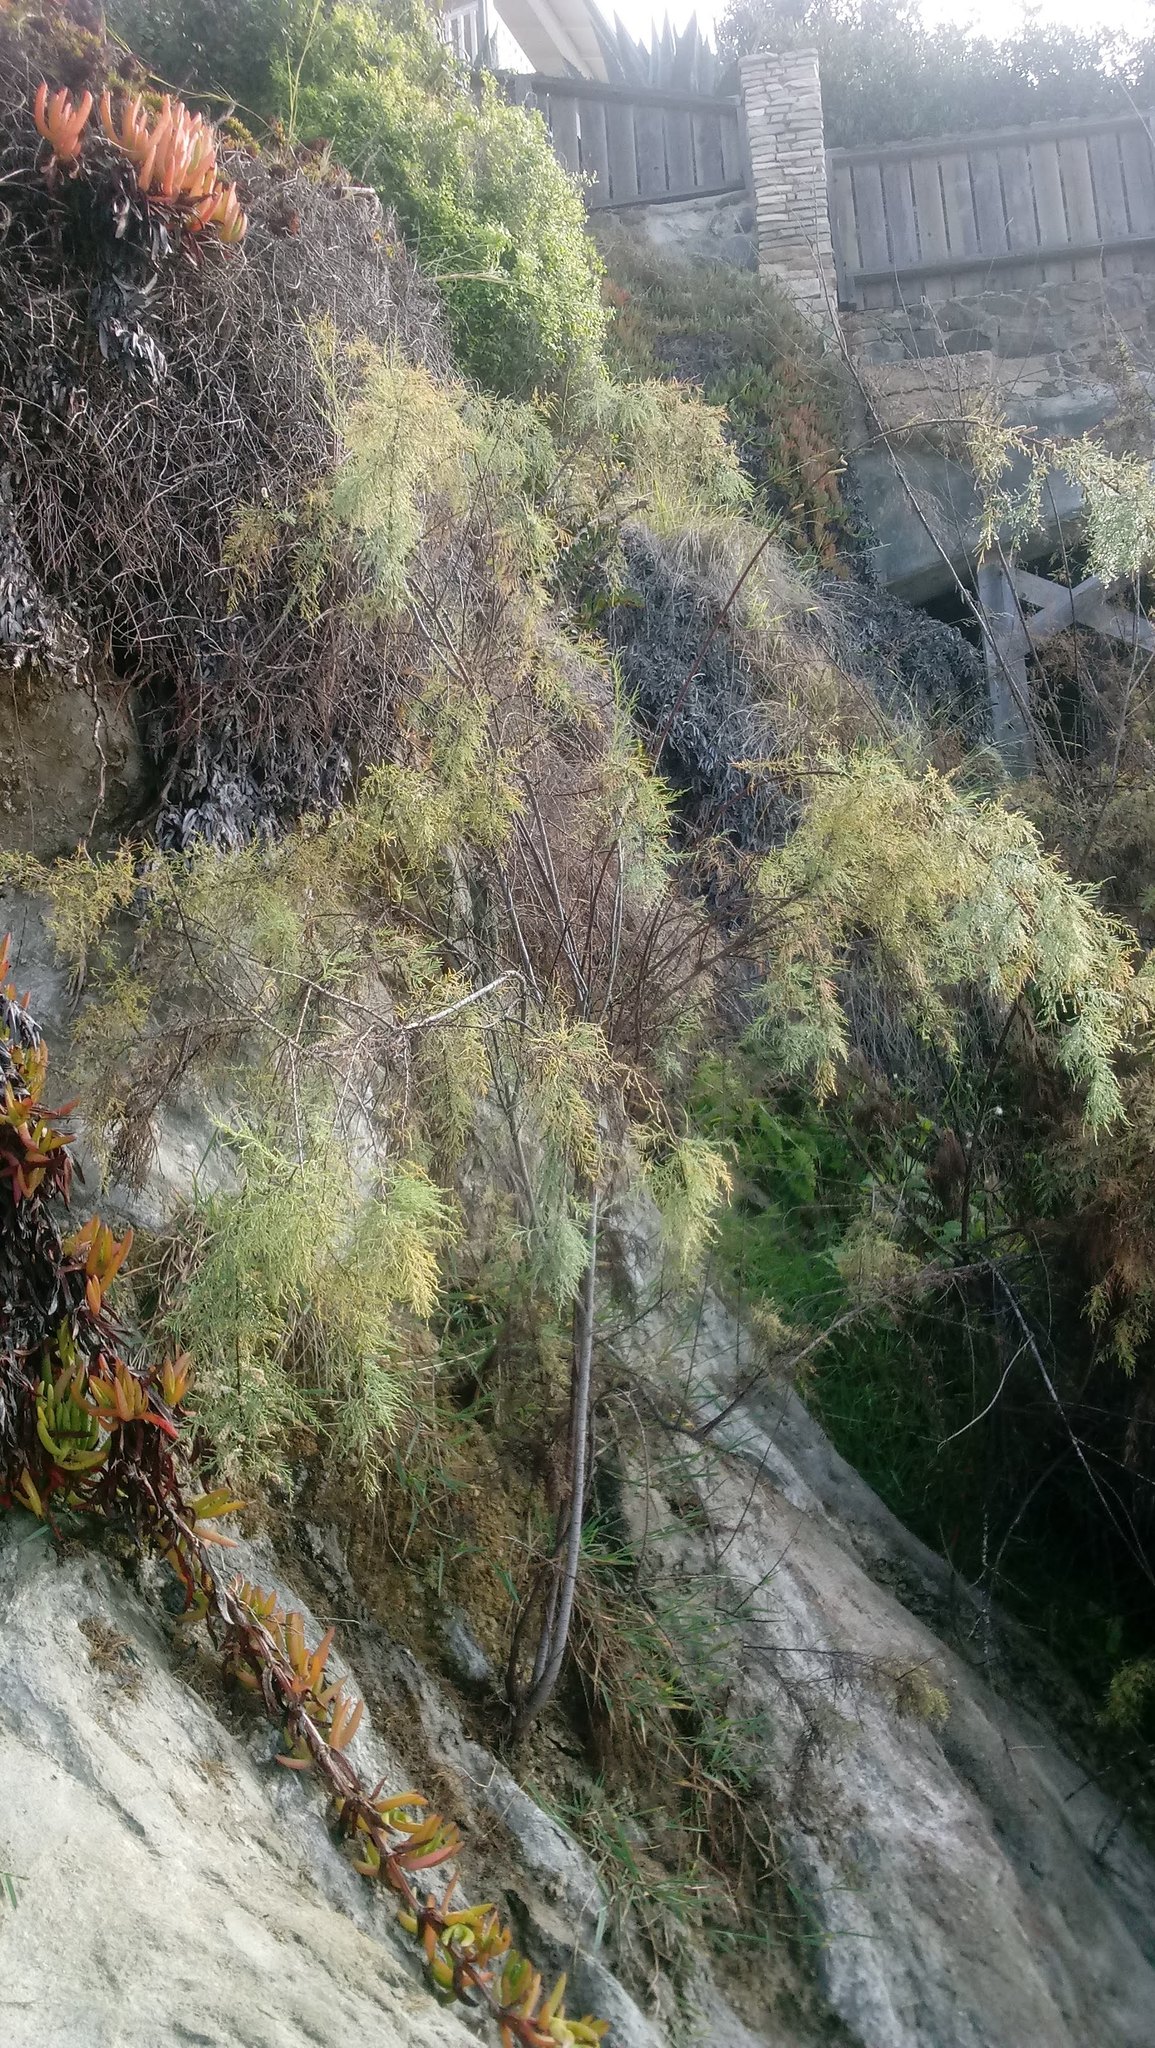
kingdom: Plantae
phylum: Tracheophyta
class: Magnoliopsida
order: Caryophyllales
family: Tamaricaceae
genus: Tamarix
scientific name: Tamarix ramosissima
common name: Pink tamarisk
